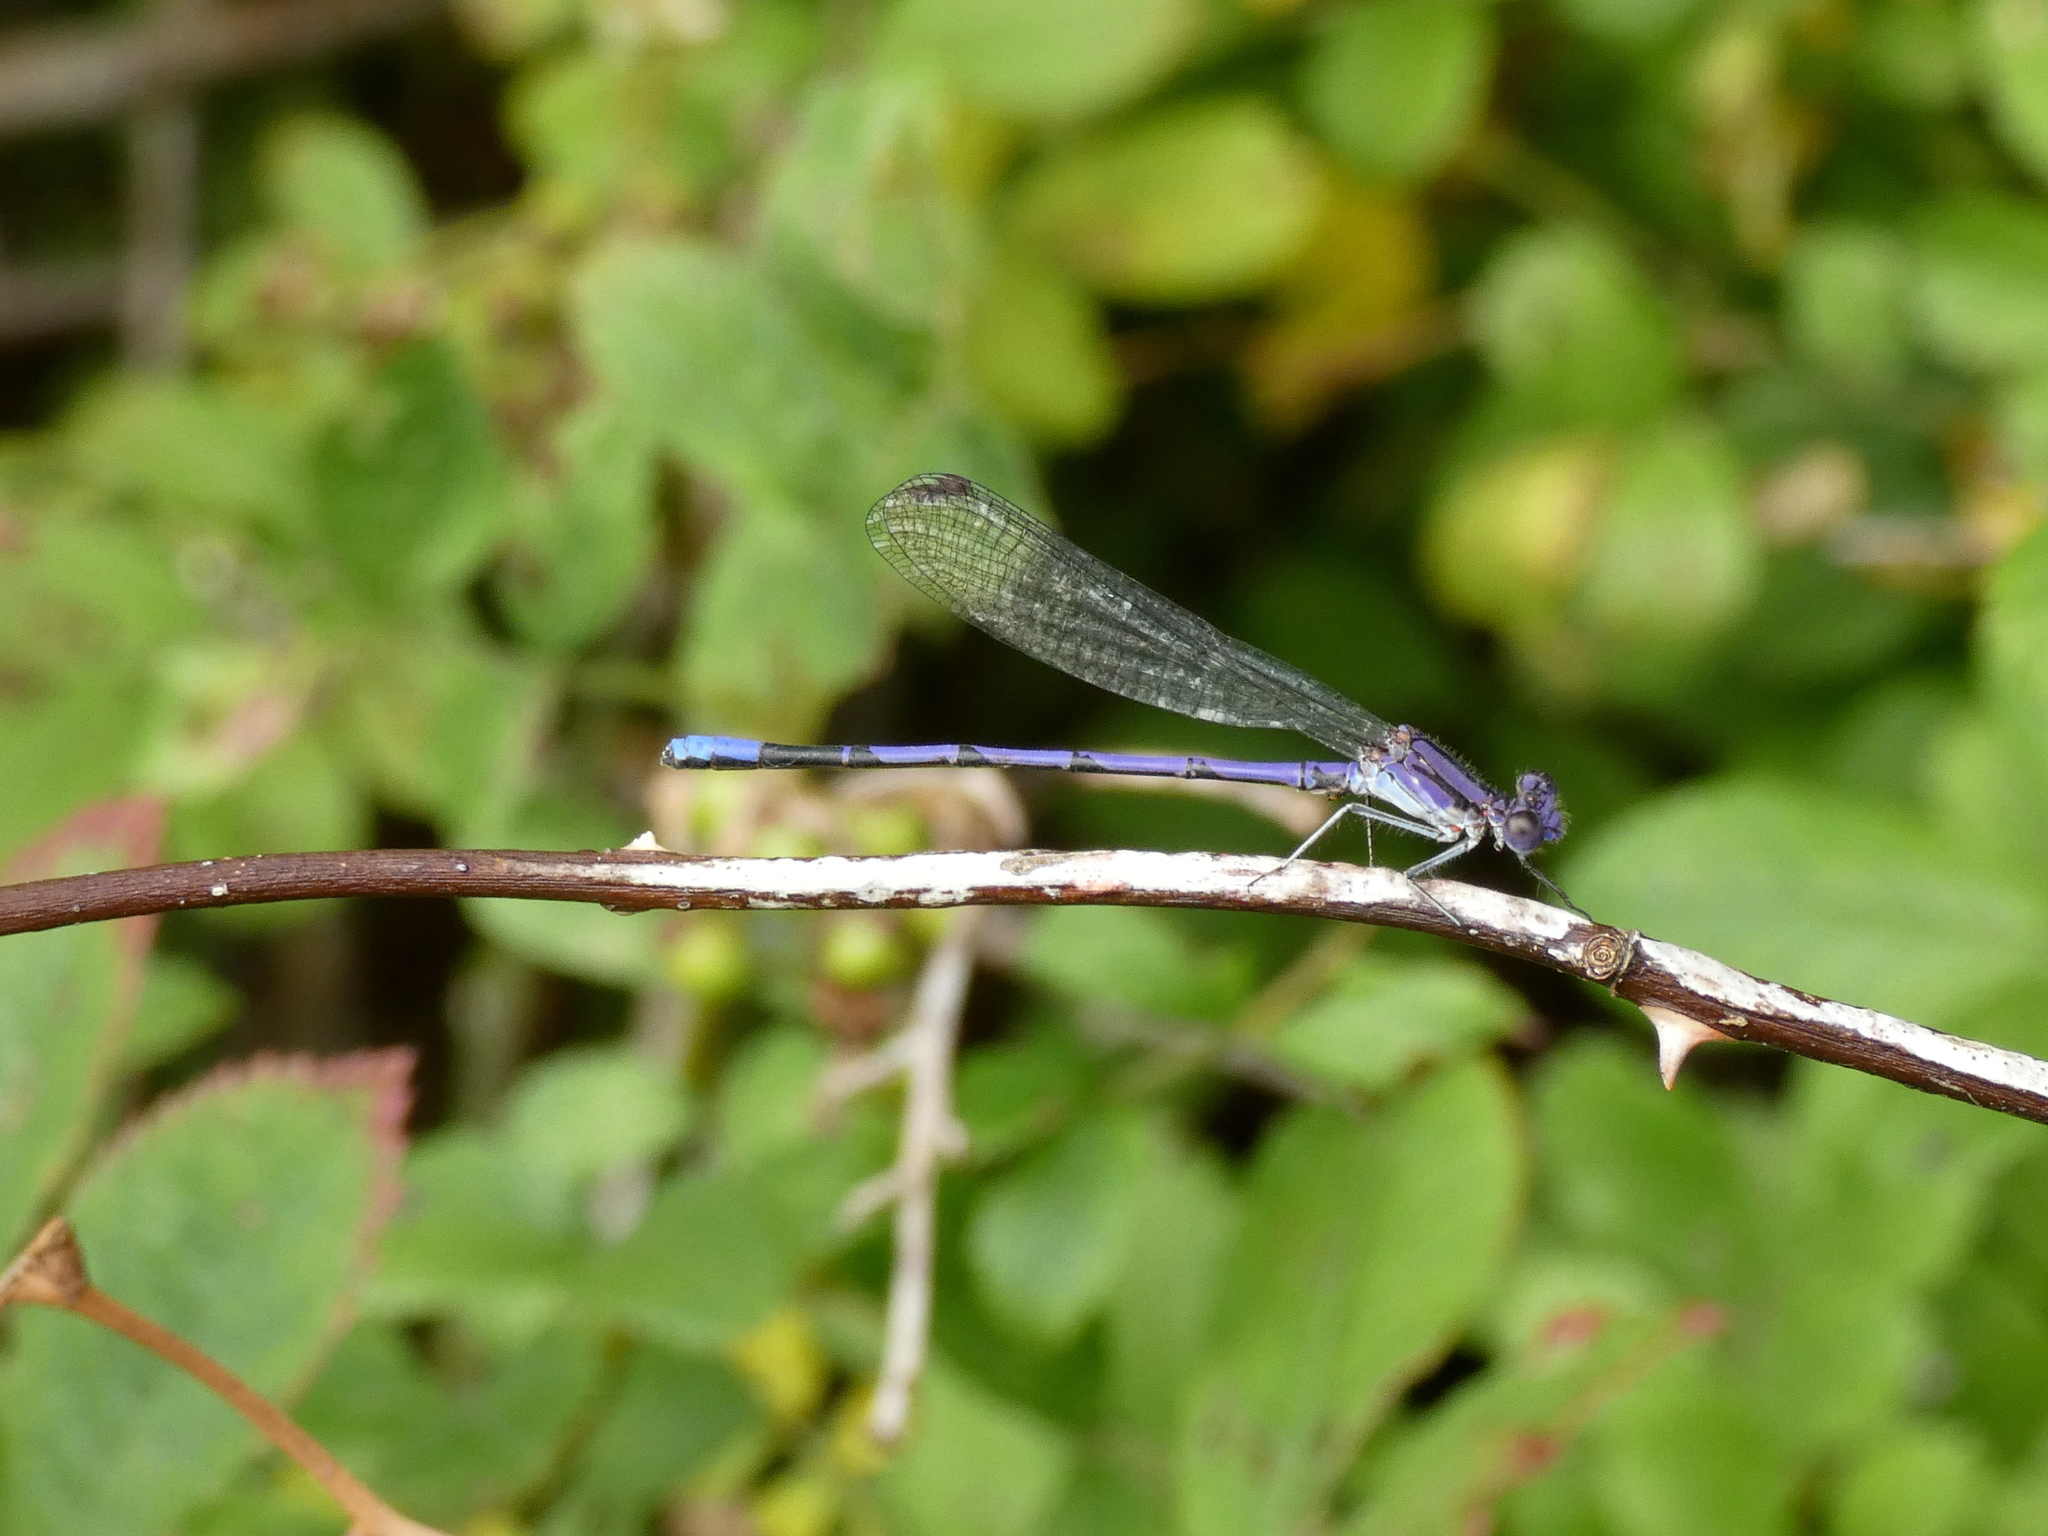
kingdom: Animalia
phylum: Arthropoda
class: Insecta
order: Odonata
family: Coenagrionidae
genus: Argia
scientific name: Argia fumipennis
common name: Variable dancer
